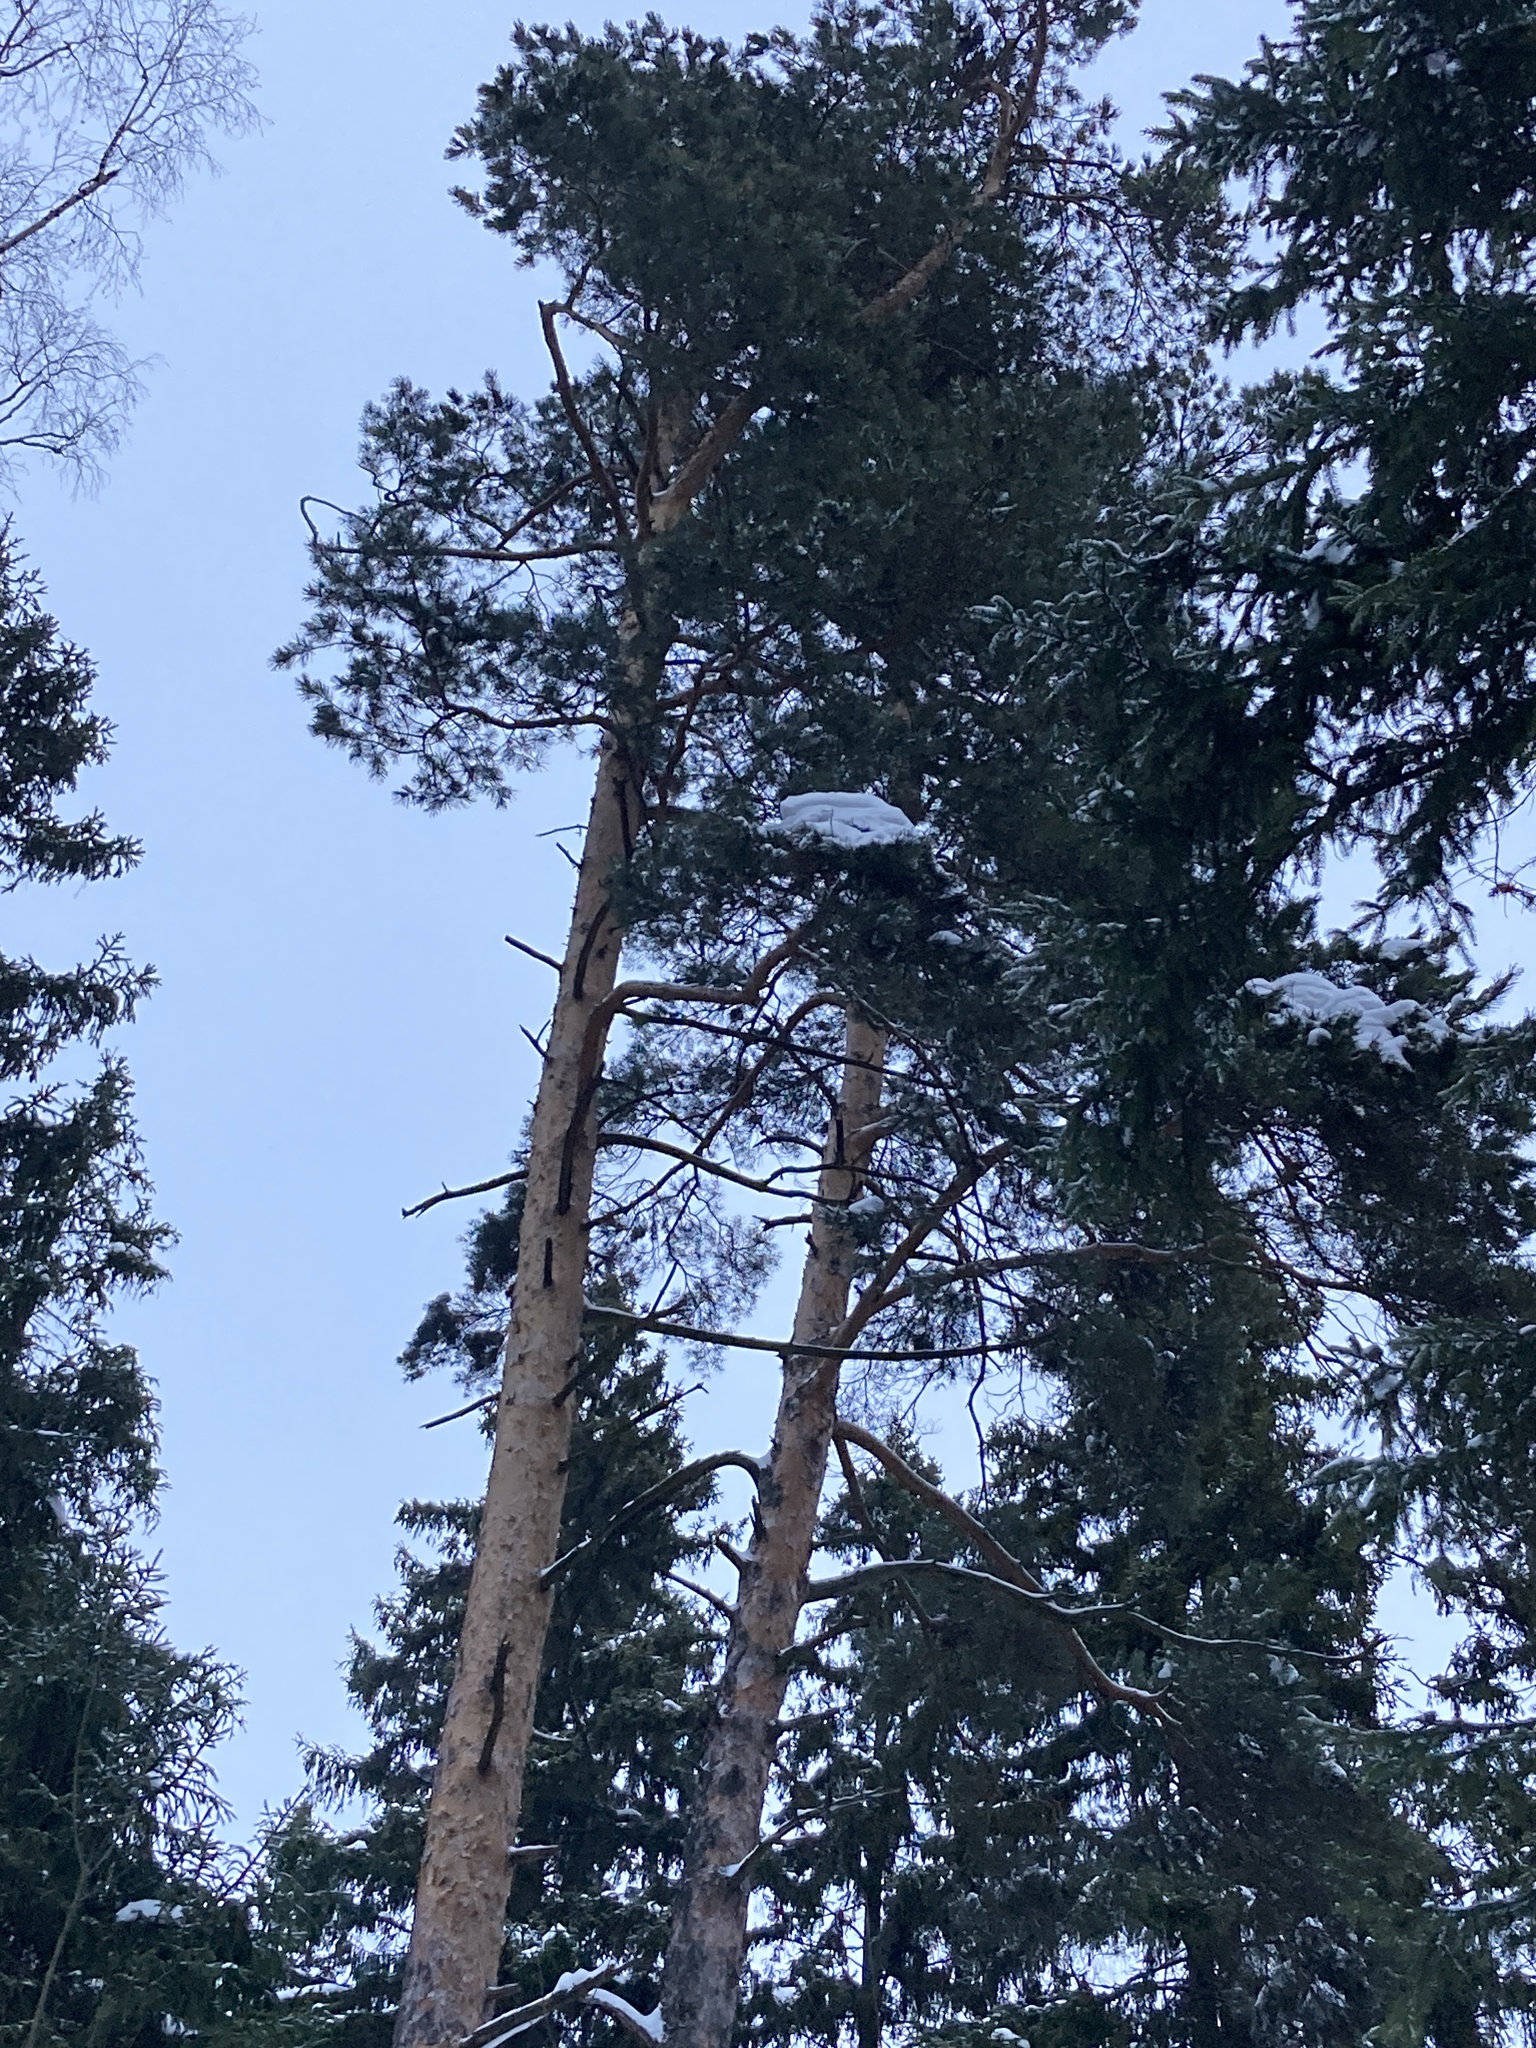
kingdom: Plantae
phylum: Tracheophyta
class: Pinopsida
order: Pinales
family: Pinaceae
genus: Pinus
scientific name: Pinus sylvestris
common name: Scots pine
